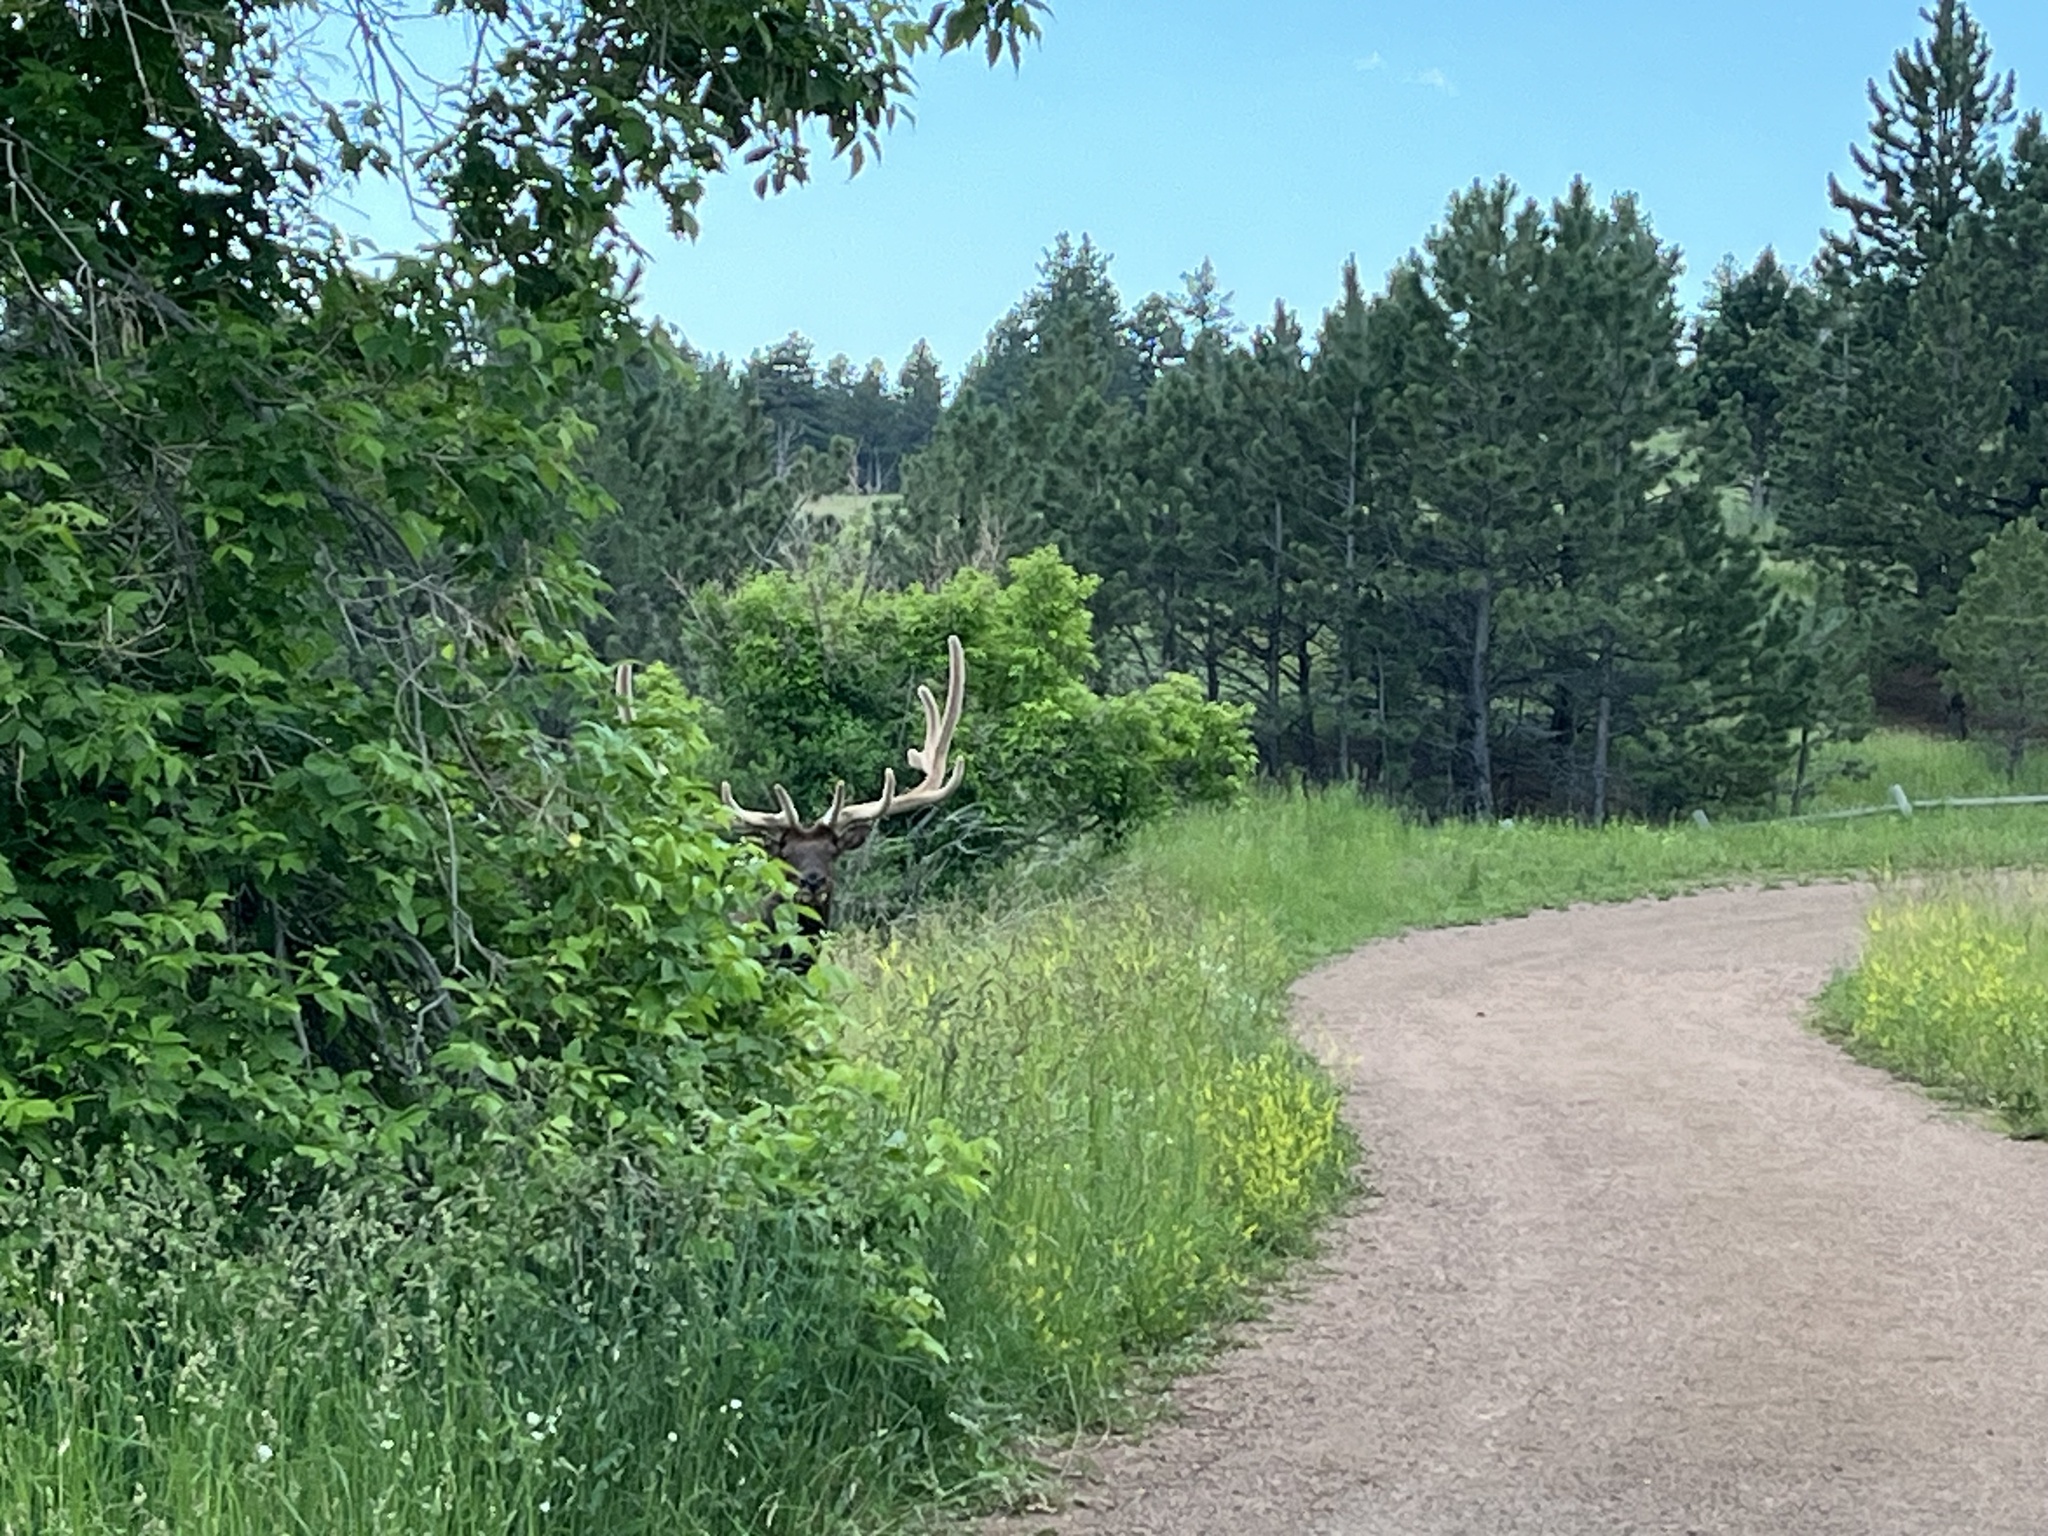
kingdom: Animalia
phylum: Chordata
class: Mammalia
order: Artiodactyla
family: Cervidae
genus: Cervus
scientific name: Cervus elaphus
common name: Red deer
